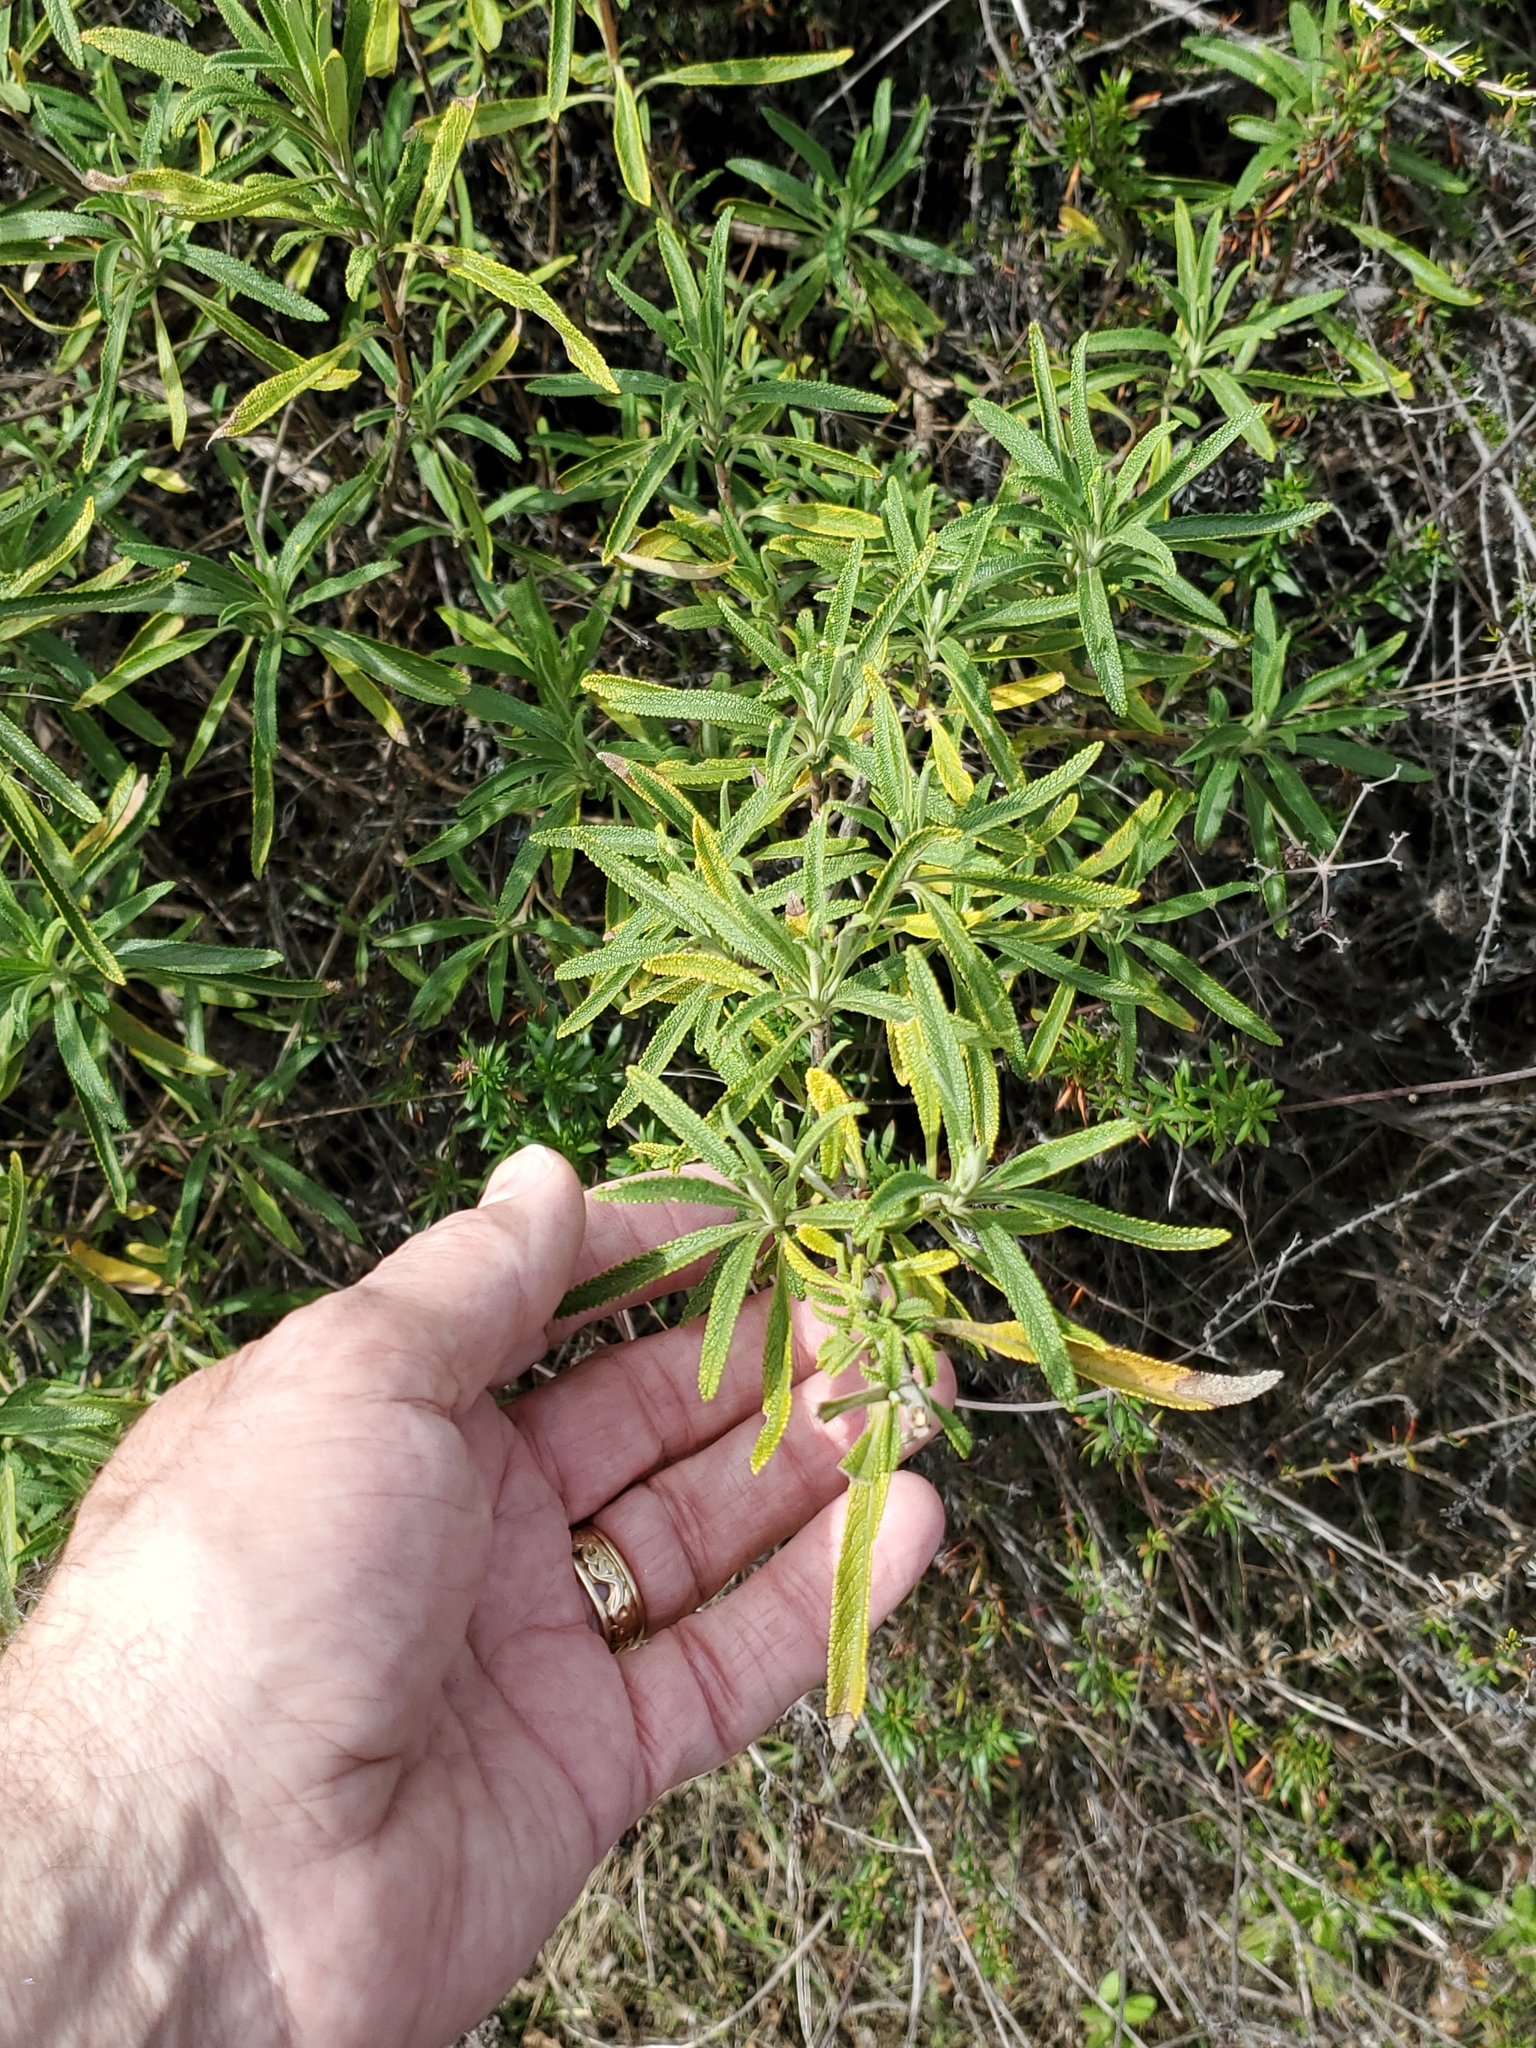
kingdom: Plantae
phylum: Tracheophyta
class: Magnoliopsida
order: Lamiales
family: Lamiaceae
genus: Salvia
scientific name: Salvia mellifera
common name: Black sage
